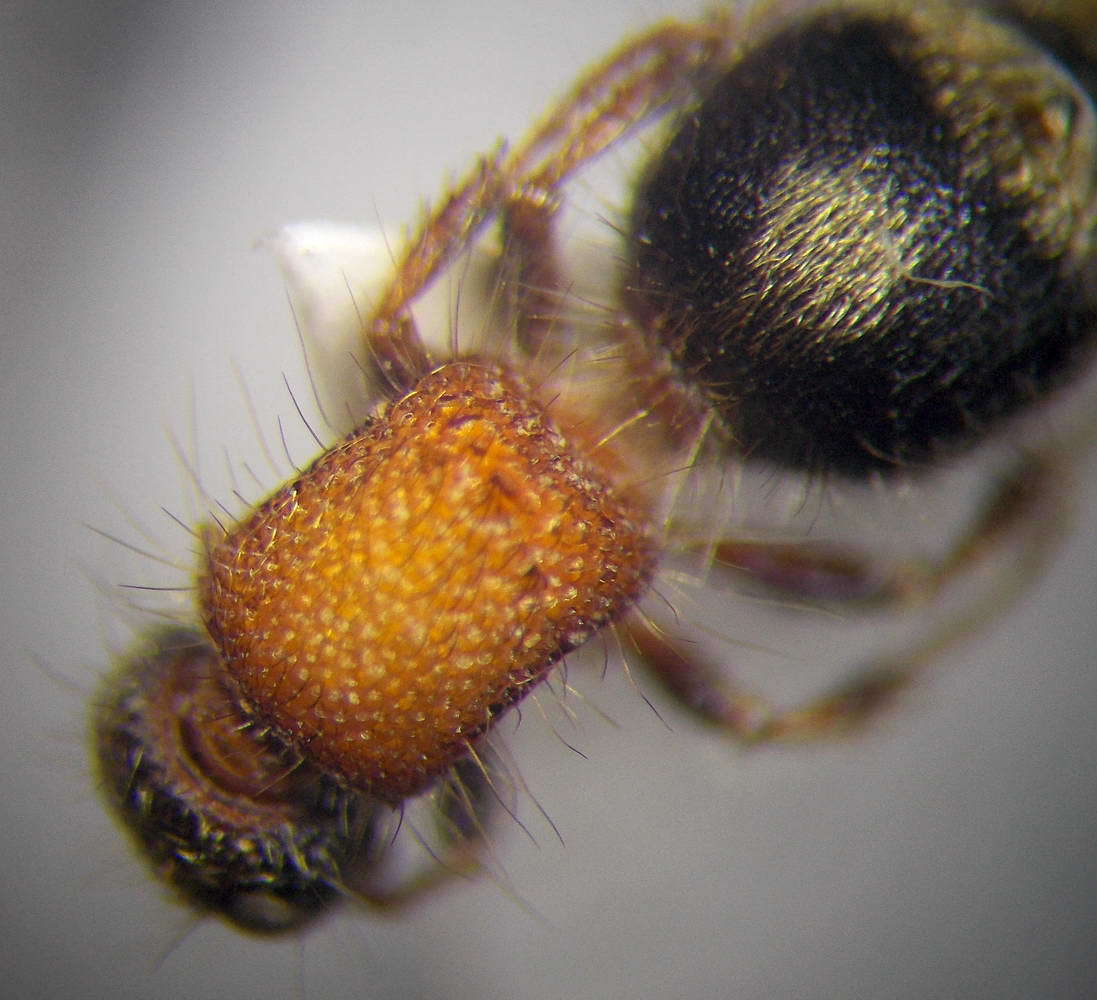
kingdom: Animalia
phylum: Arthropoda
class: Insecta
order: Hymenoptera
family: Mutillidae
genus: Smicromyrme
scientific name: Smicromyrme rufipes
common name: Small velvet ant
